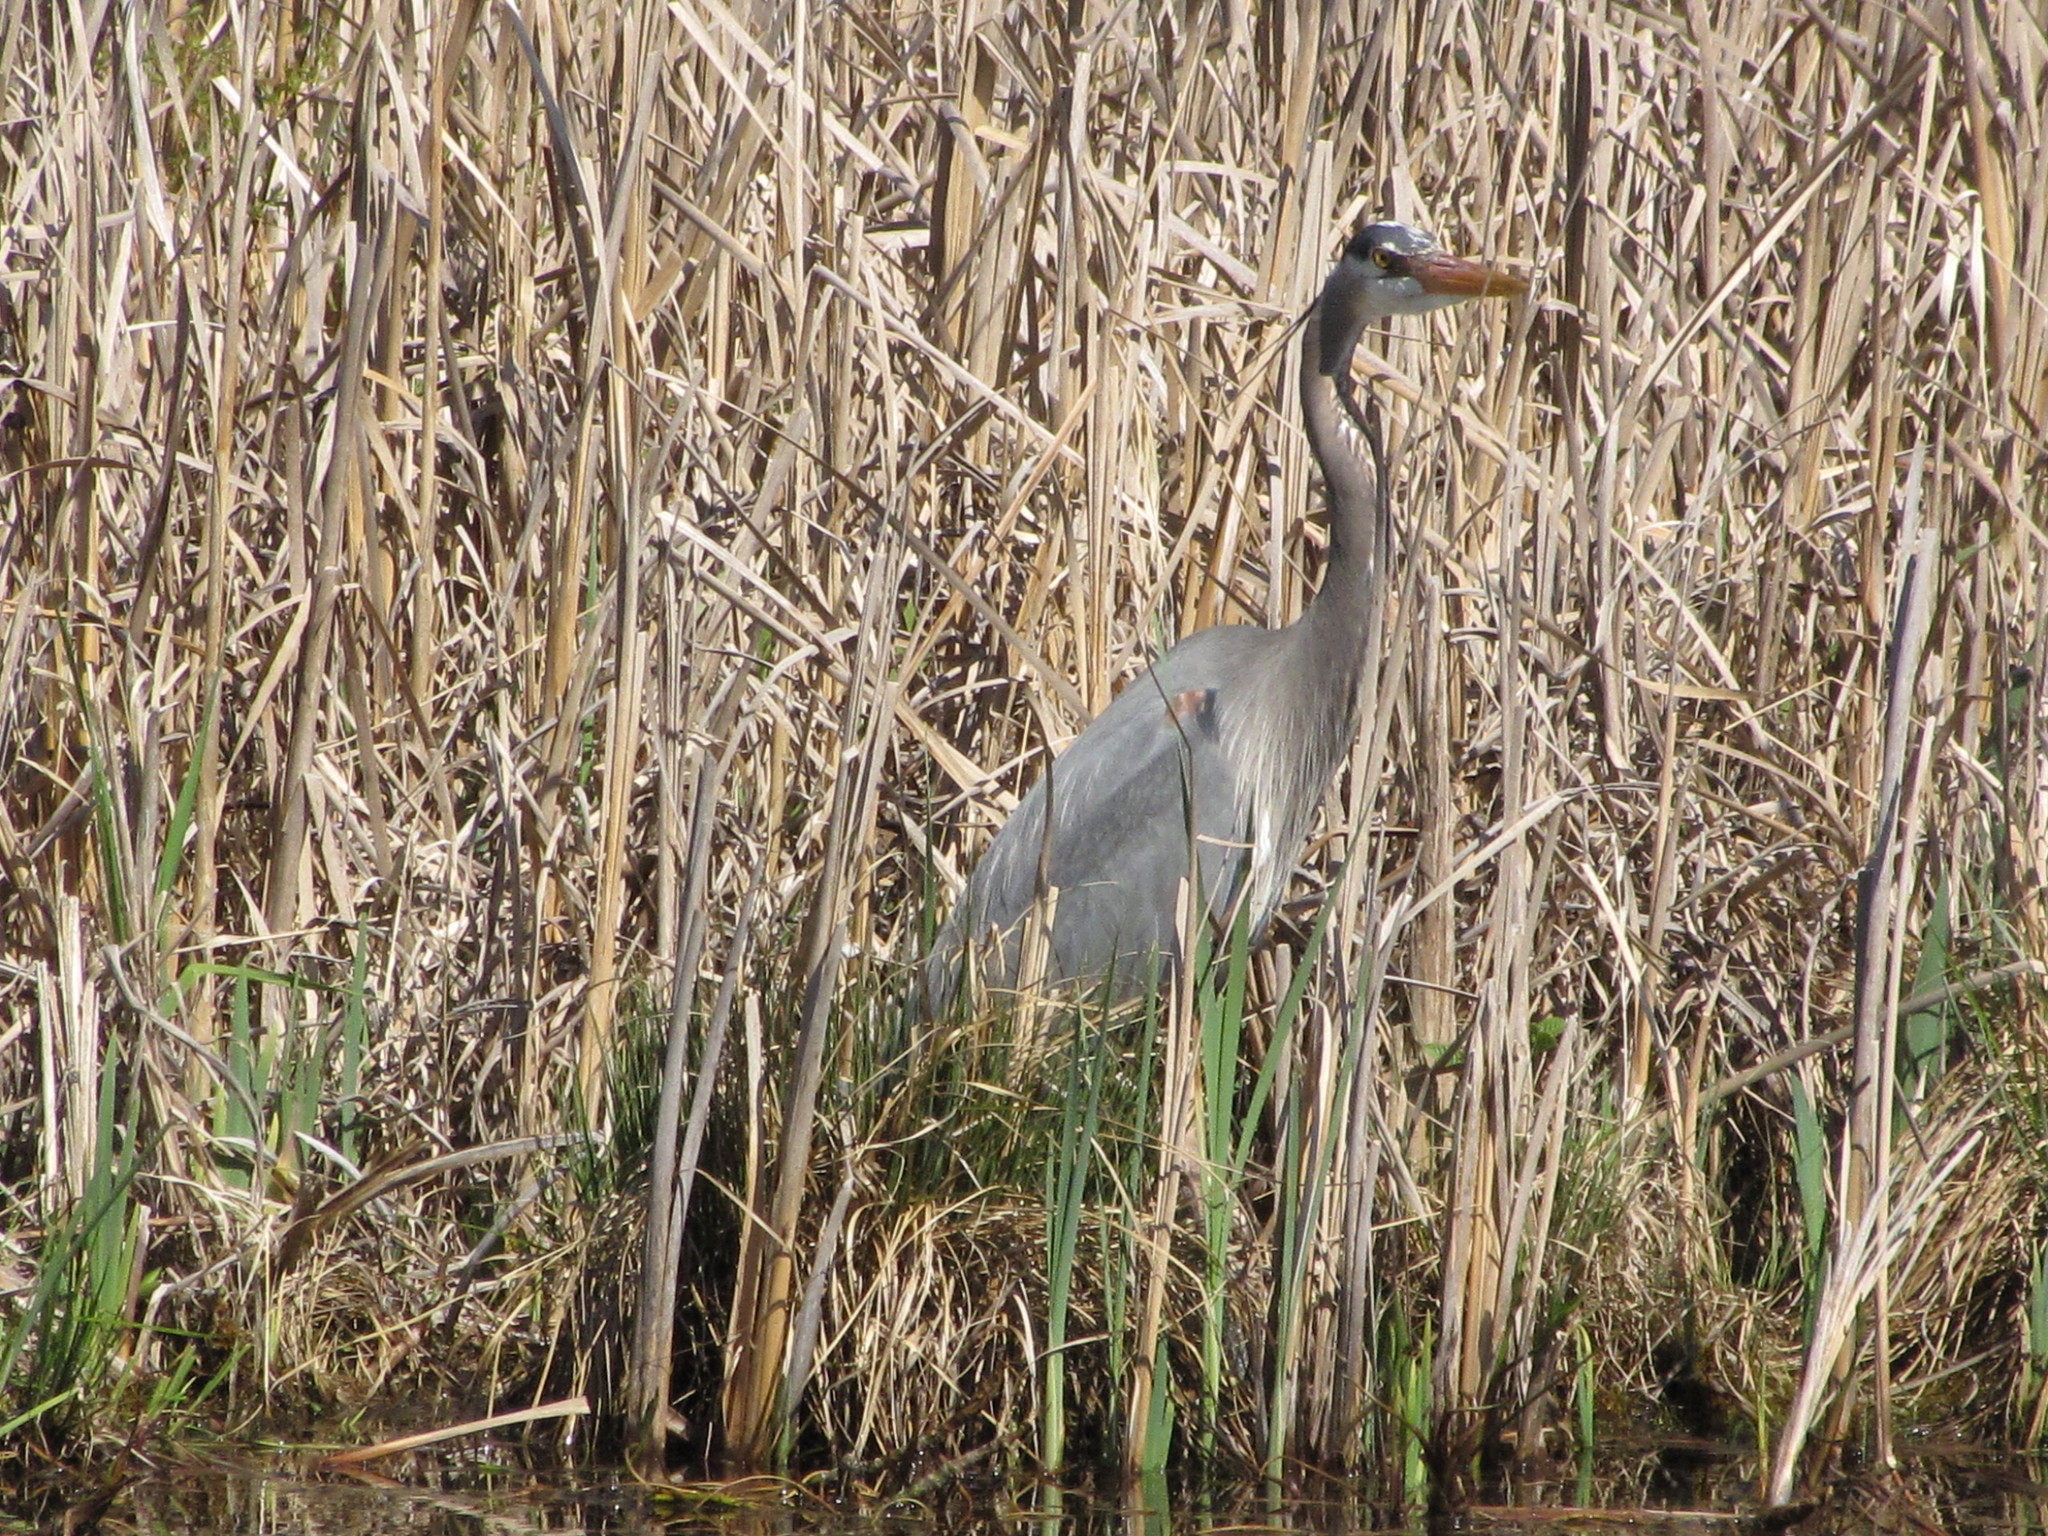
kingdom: Animalia
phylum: Chordata
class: Aves
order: Pelecaniformes
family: Ardeidae
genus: Ardea
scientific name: Ardea herodias
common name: Great blue heron
